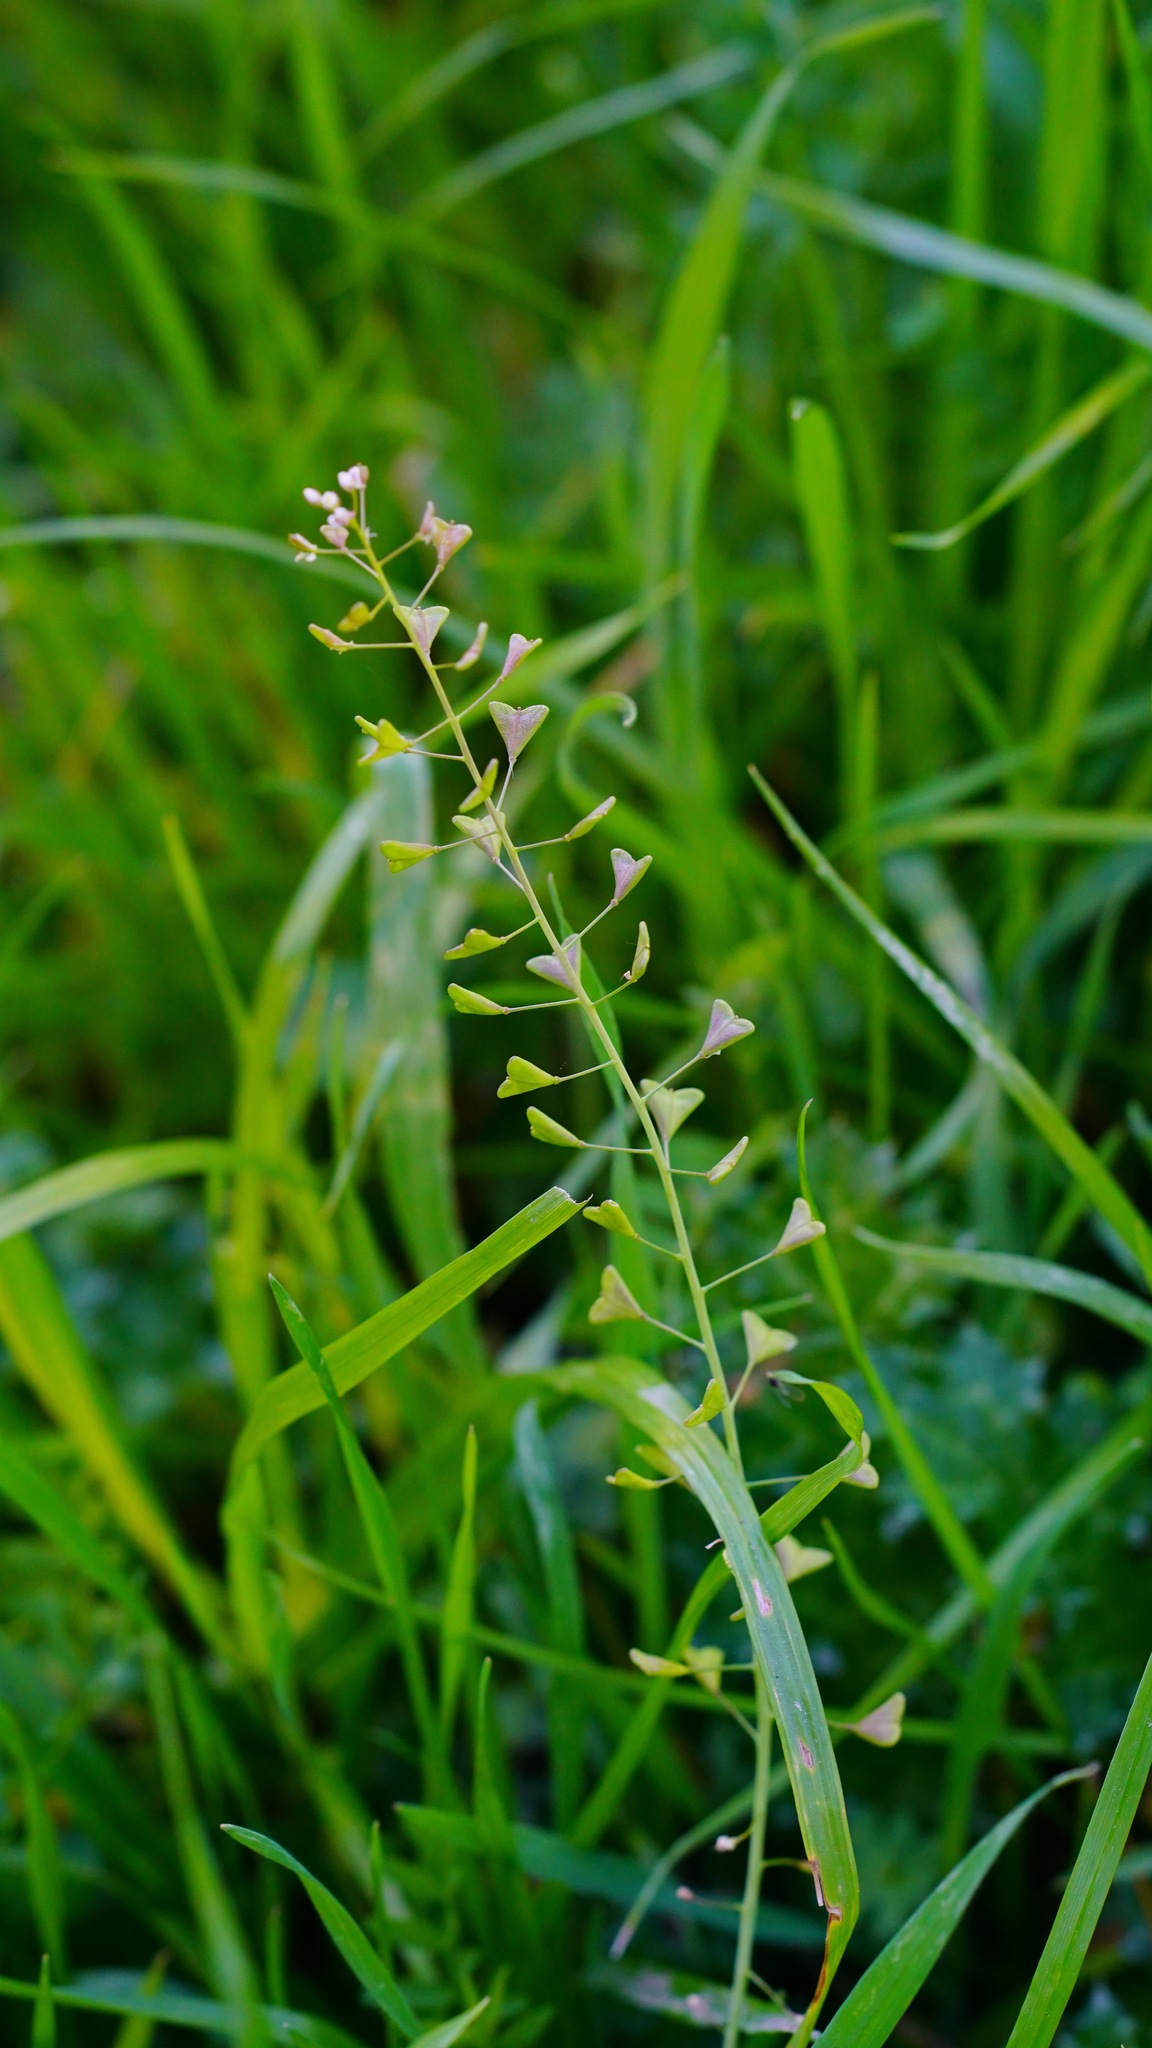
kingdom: Plantae
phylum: Tracheophyta
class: Magnoliopsida
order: Brassicales
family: Brassicaceae
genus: Capsella
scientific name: Capsella bursa-pastoris
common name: Shepherd's purse
